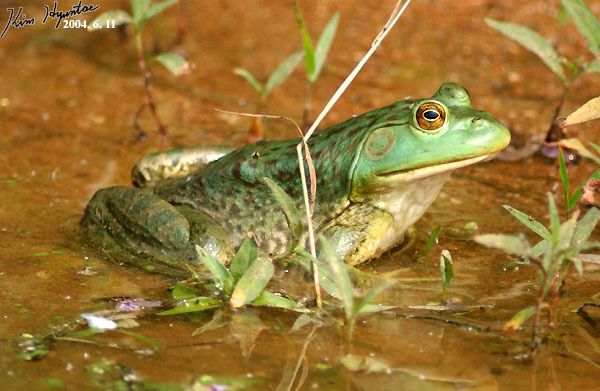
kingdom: Animalia
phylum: Chordata
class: Amphibia
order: Anura
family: Ranidae
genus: Lithobates
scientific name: Lithobates catesbeianus
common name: American bullfrog
